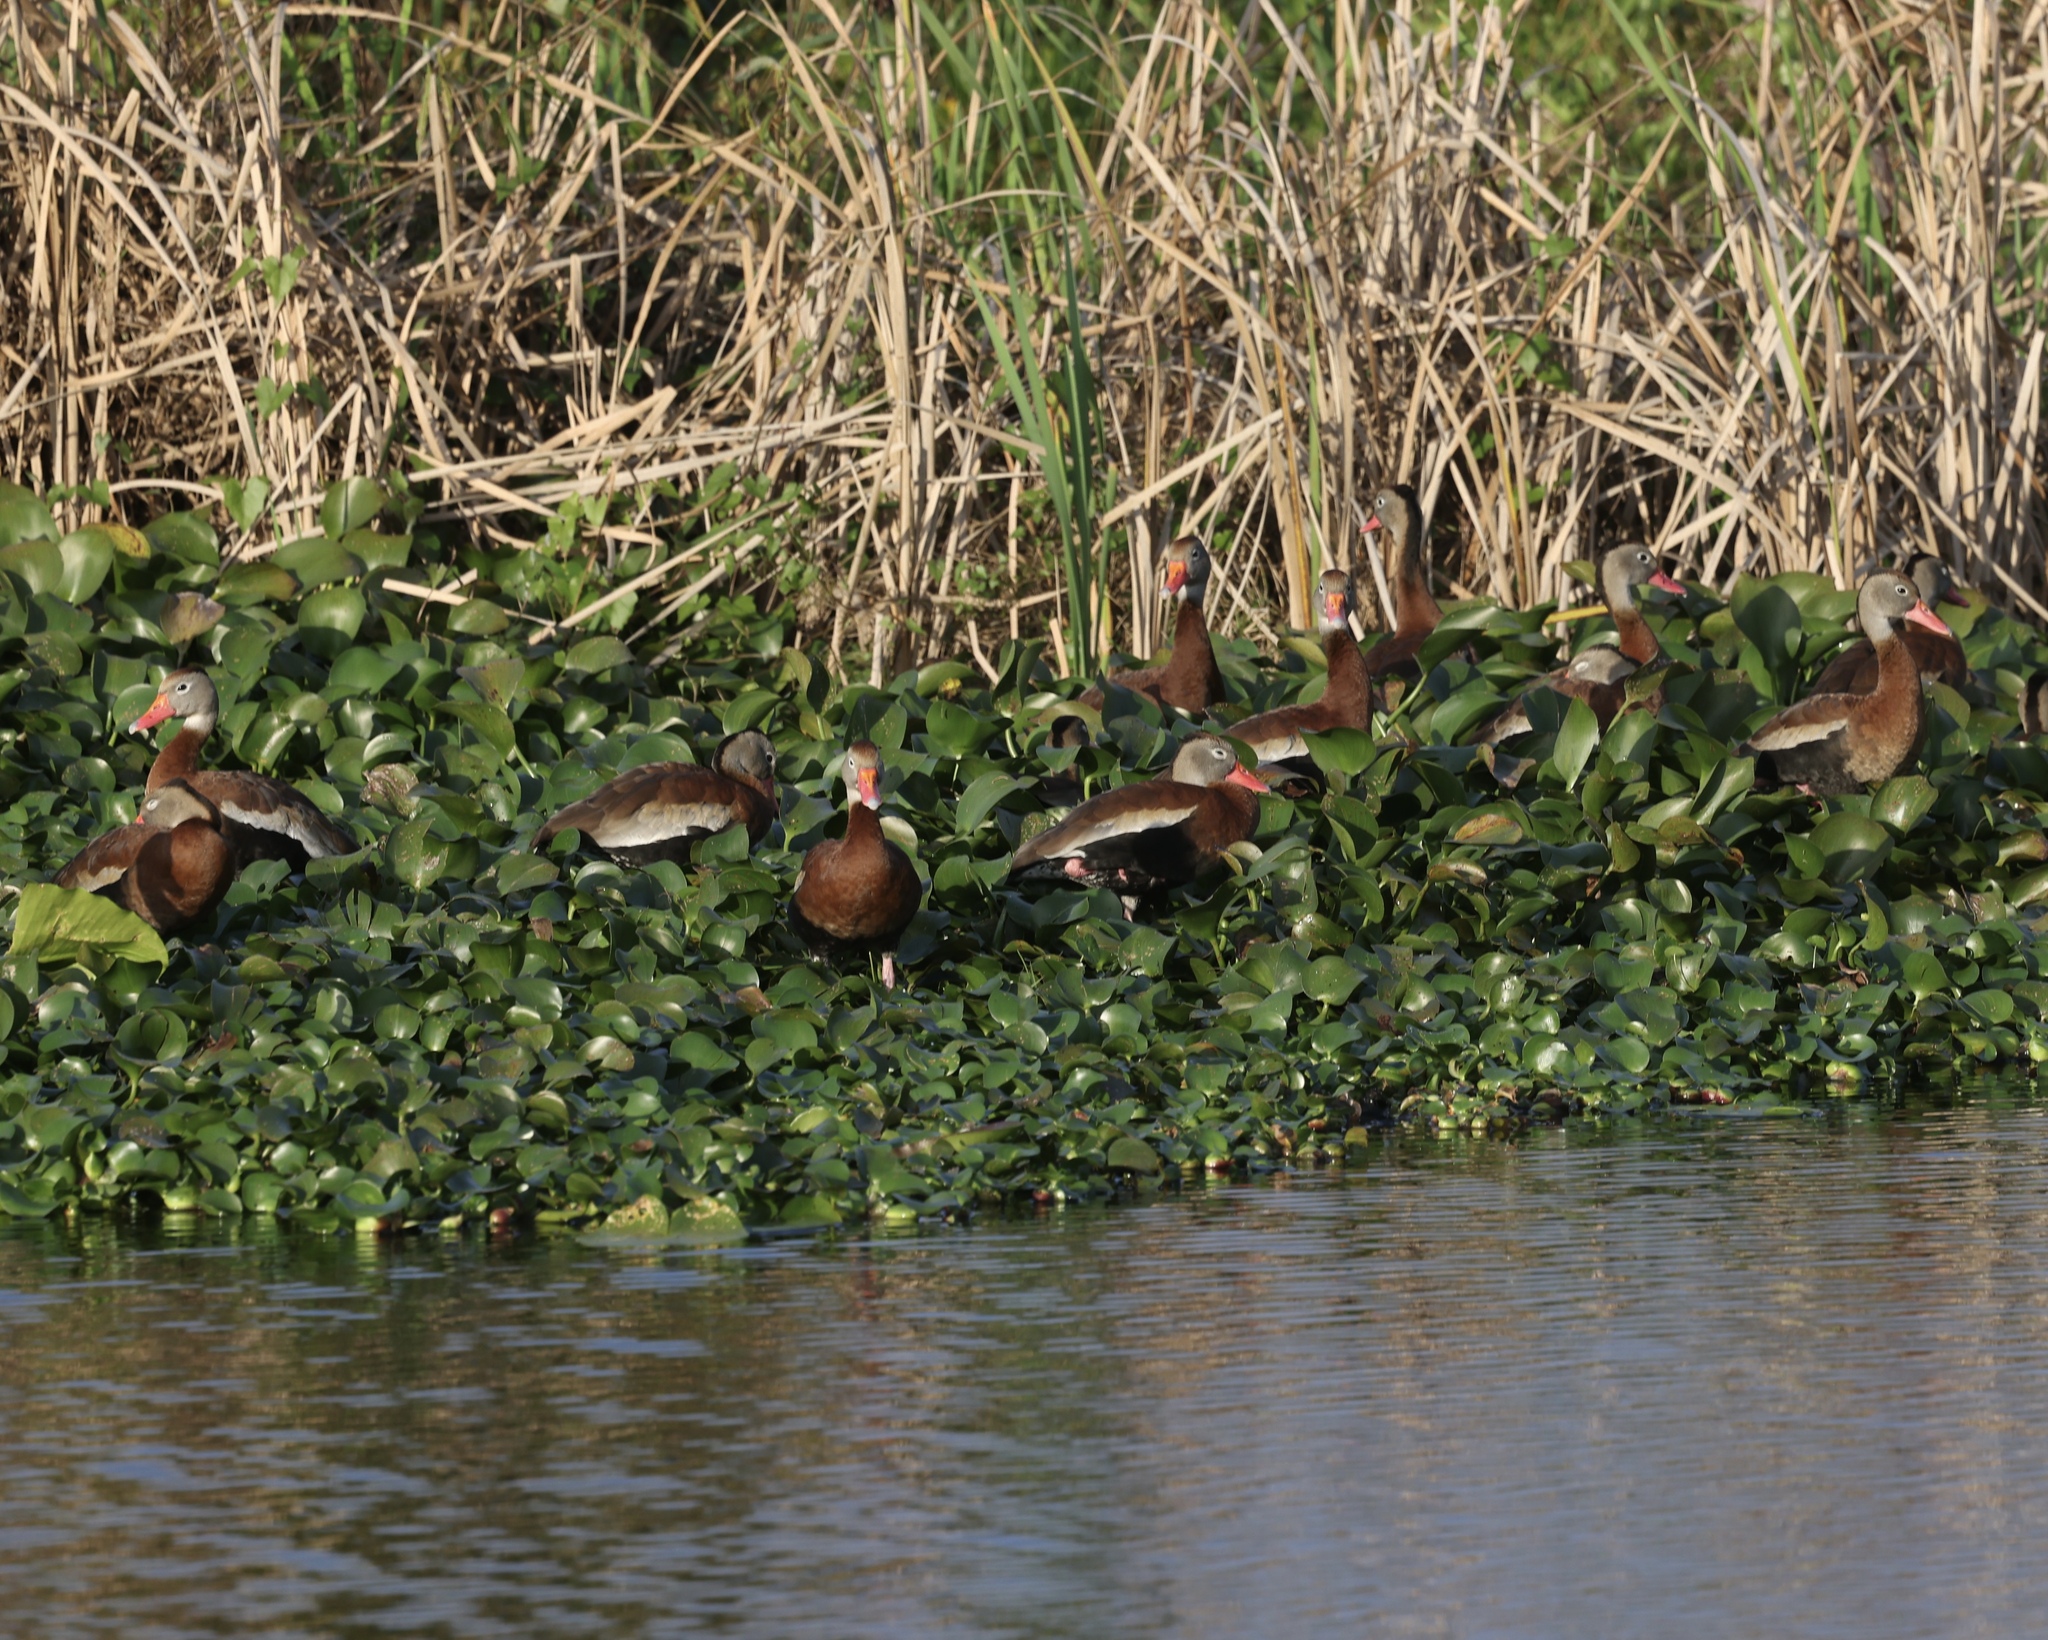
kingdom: Animalia
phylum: Chordata
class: Aves
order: Anseriformes
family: Anatidae
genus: Dendrocygna
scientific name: Dendrocygna autumnalis
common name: Black-bellied whistling duck
